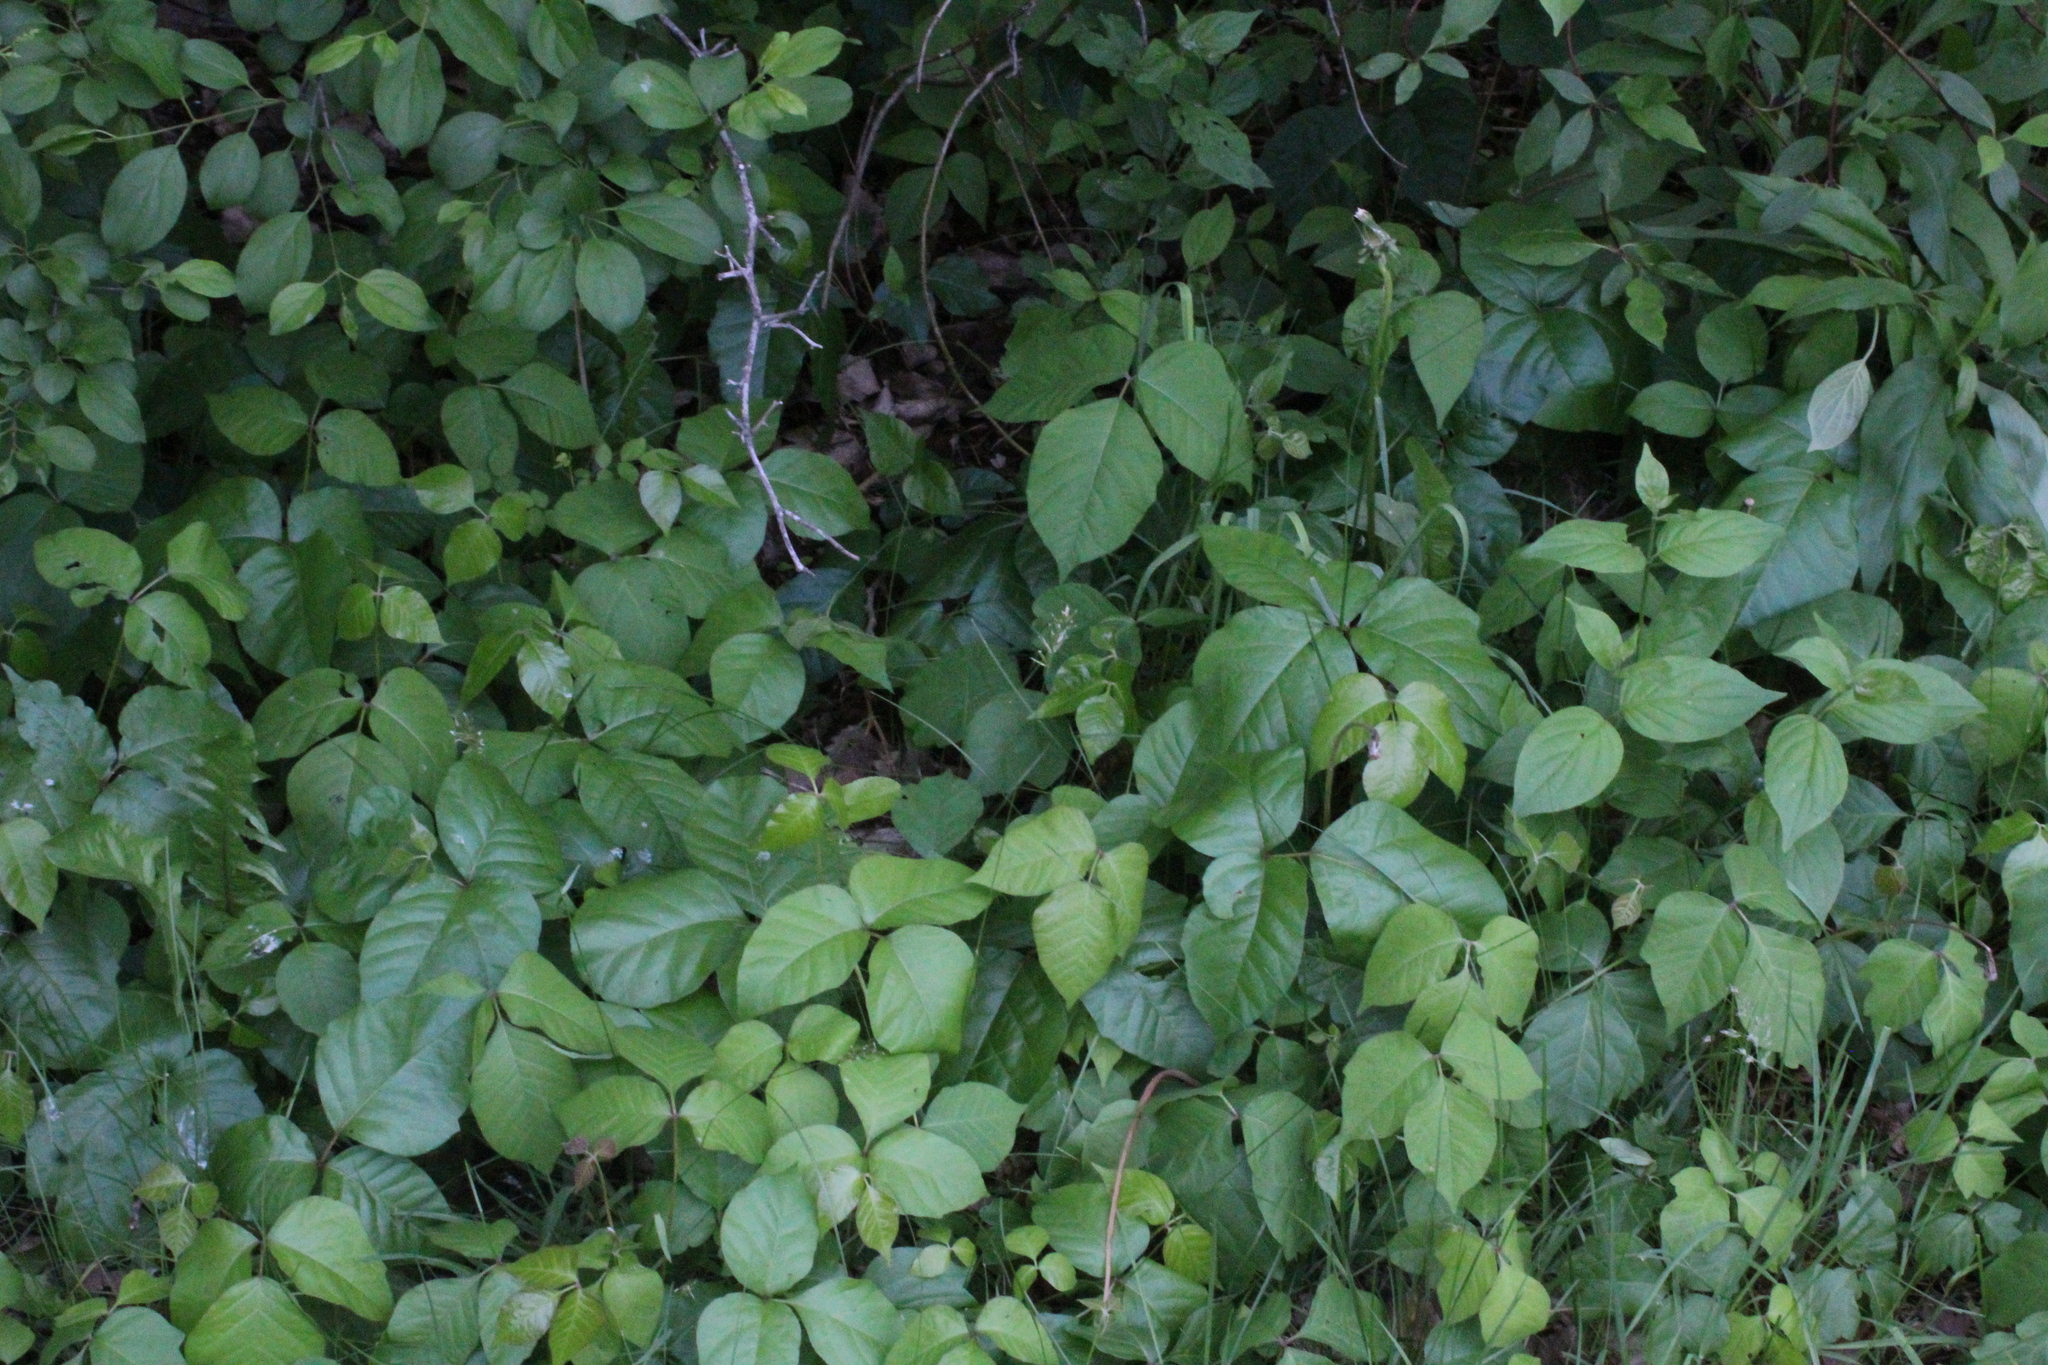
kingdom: Plantae
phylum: Tracheophyta
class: Magnoliopsida
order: Sapindales
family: Anacardiaceae
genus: Toxicodendron
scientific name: Toxicodendron radicans
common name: Poison ivy
